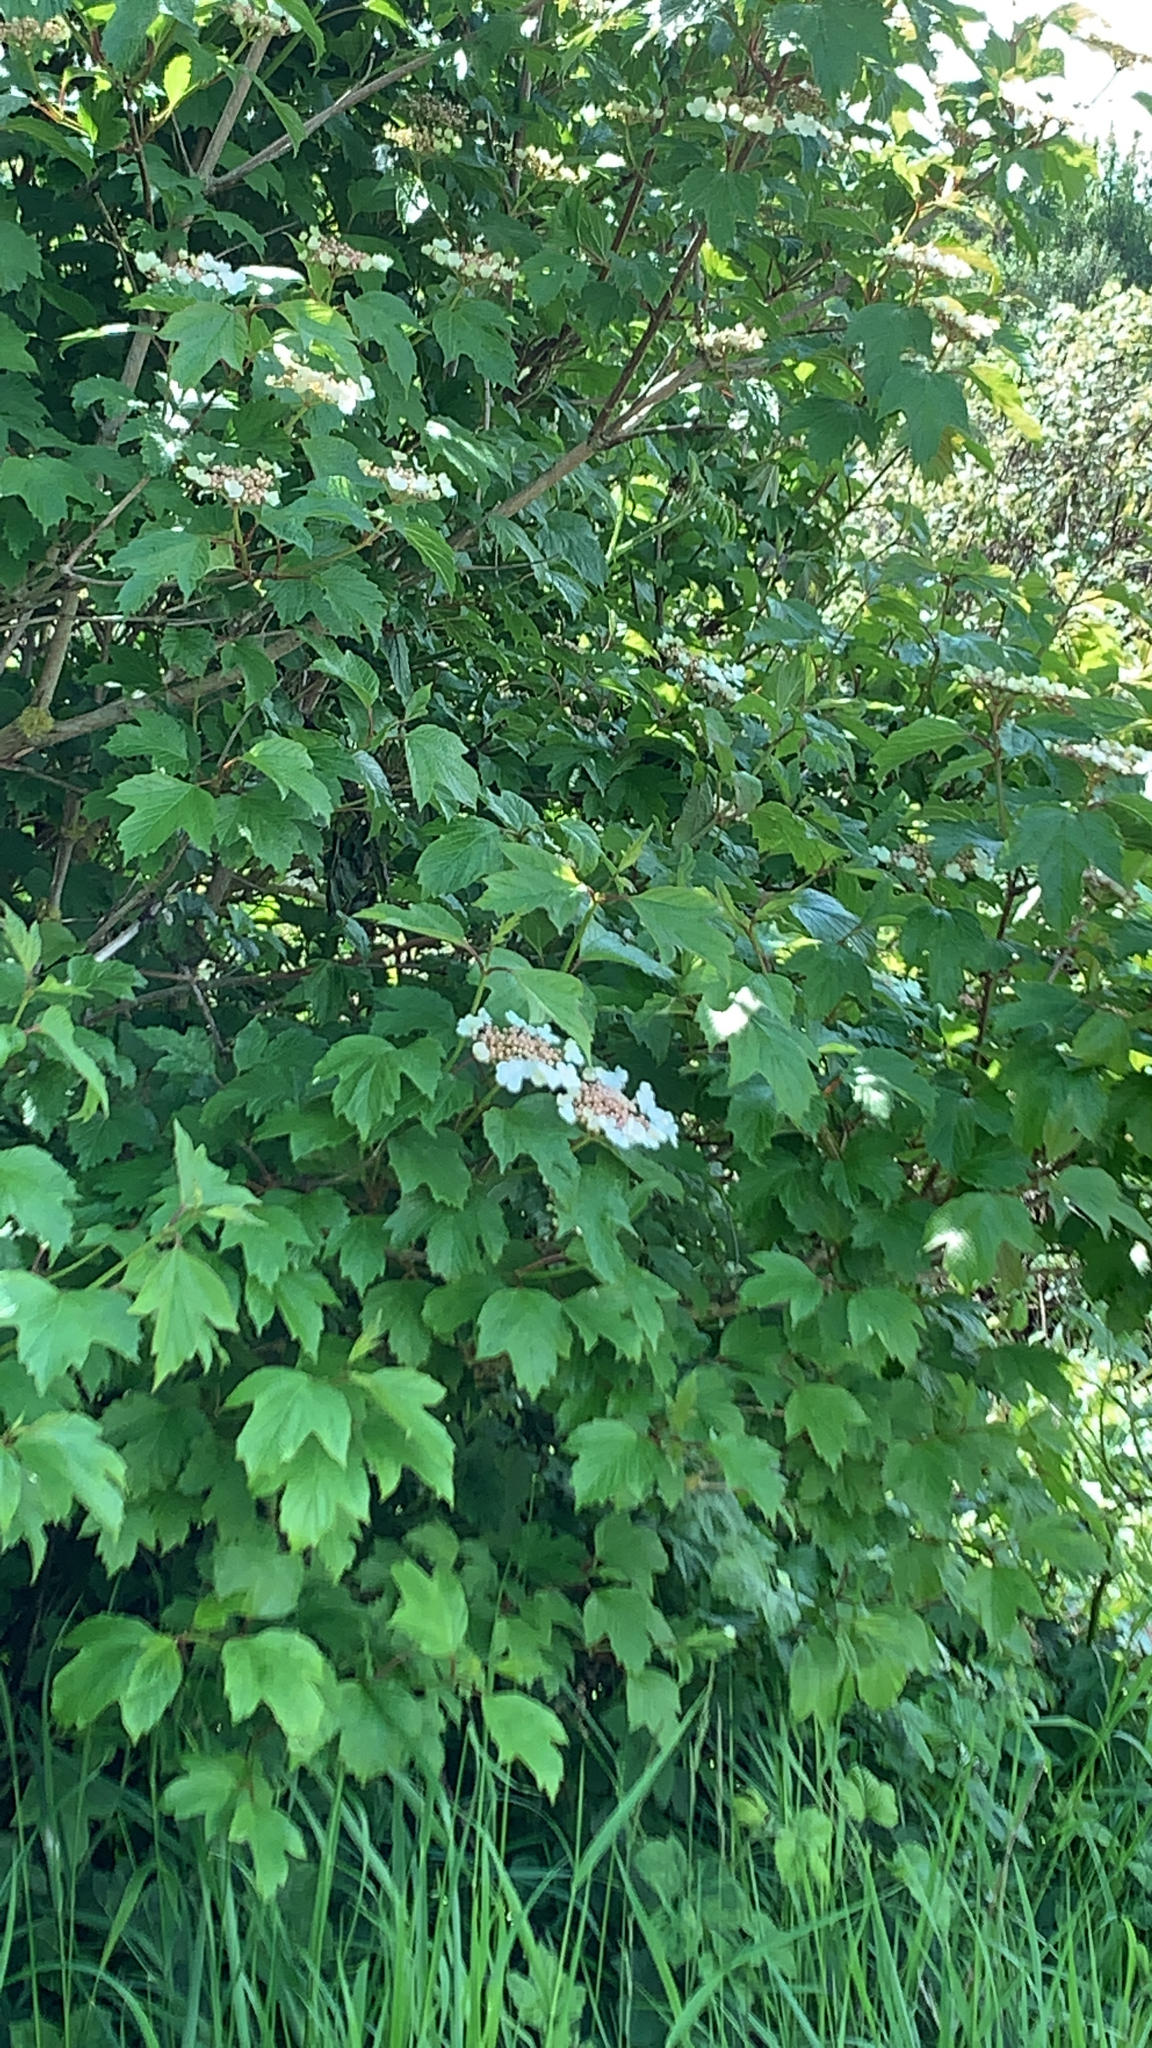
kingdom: Plantae
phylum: Tracheophyta
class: Magnoliopsida
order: Dipsacales
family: Viburnaceae
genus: Viburnum
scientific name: Viburnum opulus
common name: Guelder-rose
